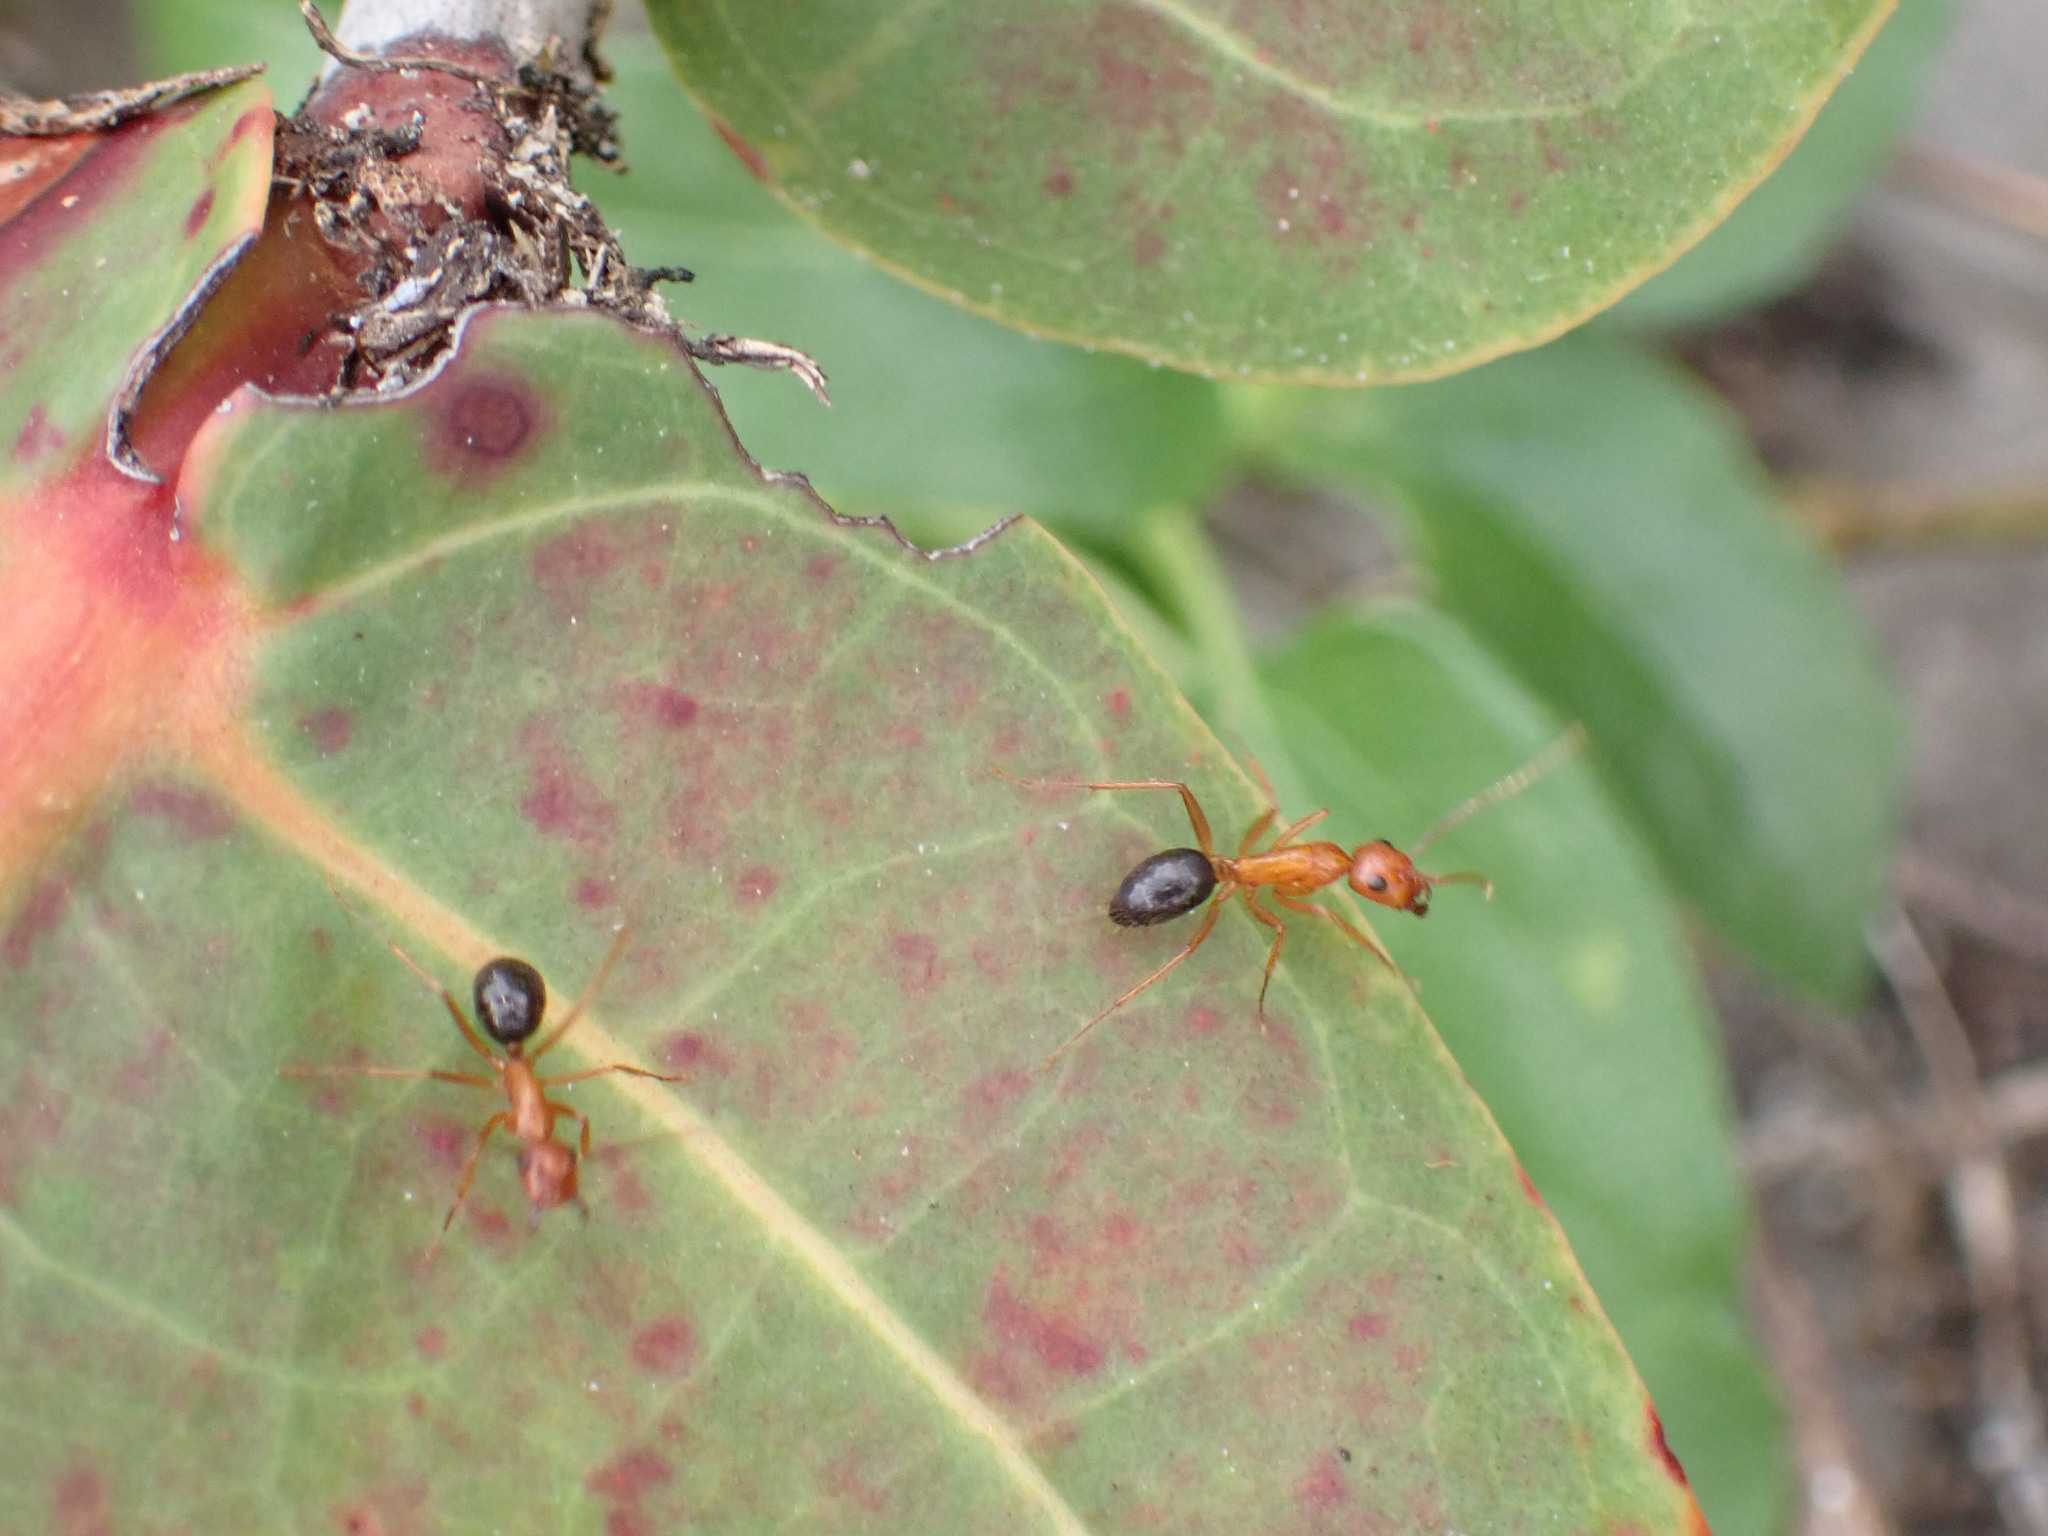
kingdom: Animalia
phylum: Arthropoda
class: Insecta
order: Hymenoptera
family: Formicidae
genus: Camponotus
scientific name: Camponotus floridanus
